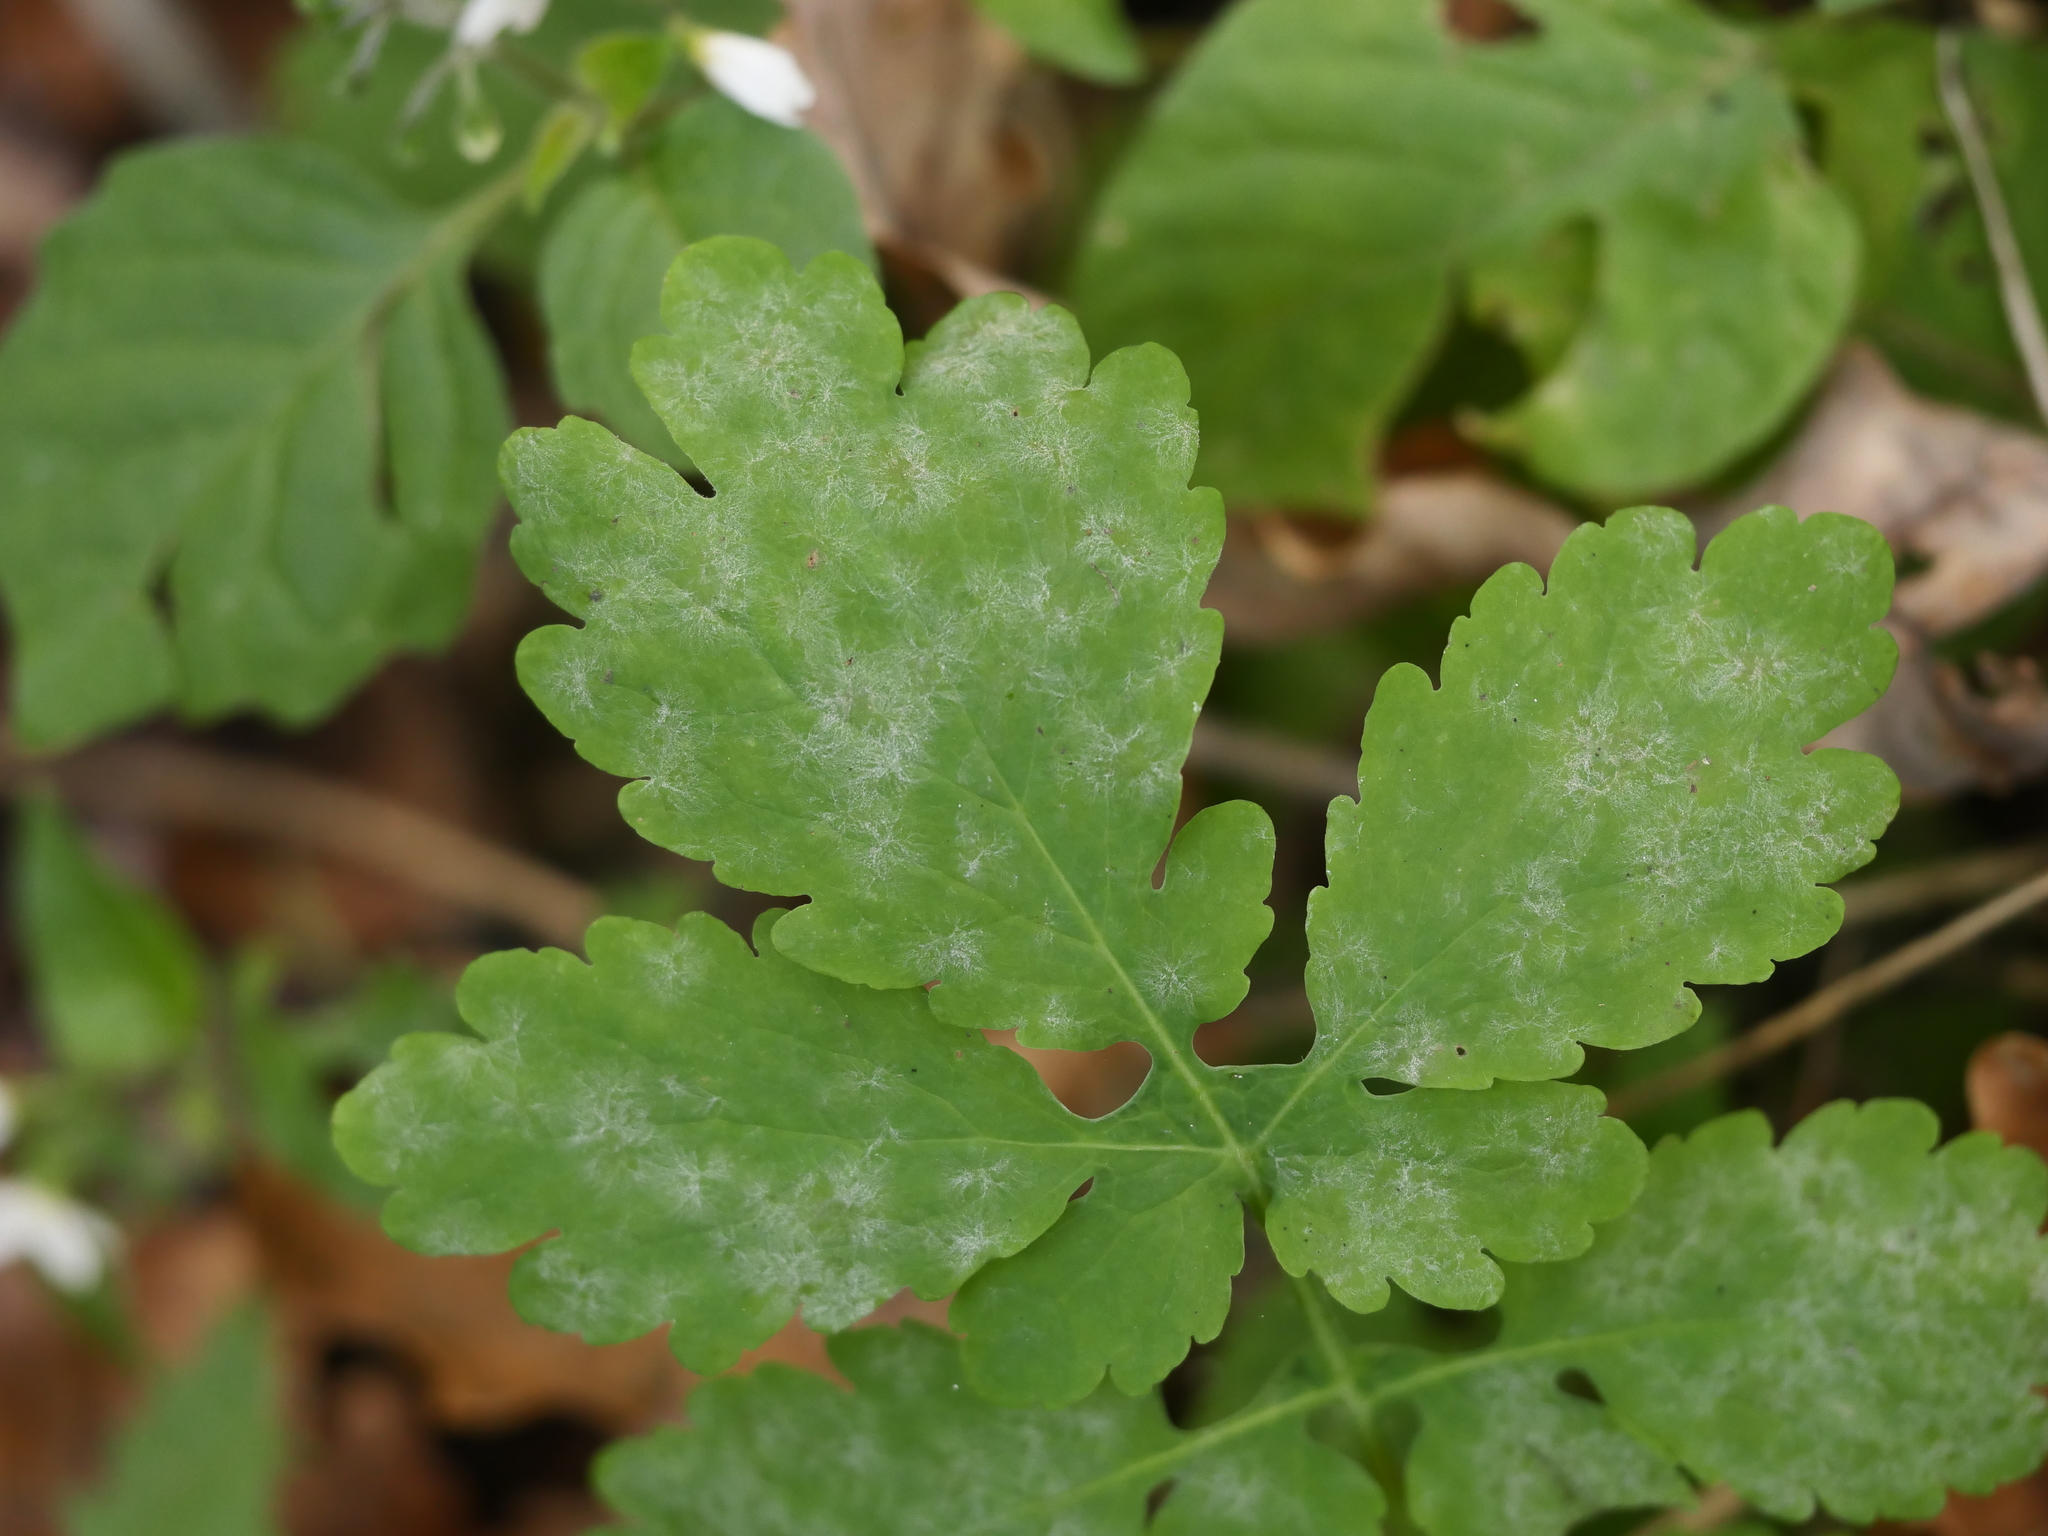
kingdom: Fungi
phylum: Ascomycota
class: Leotiomycetes
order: Helotiales
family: Erysiphaceae
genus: Erysiphe
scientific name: Erysiphe macleayae
